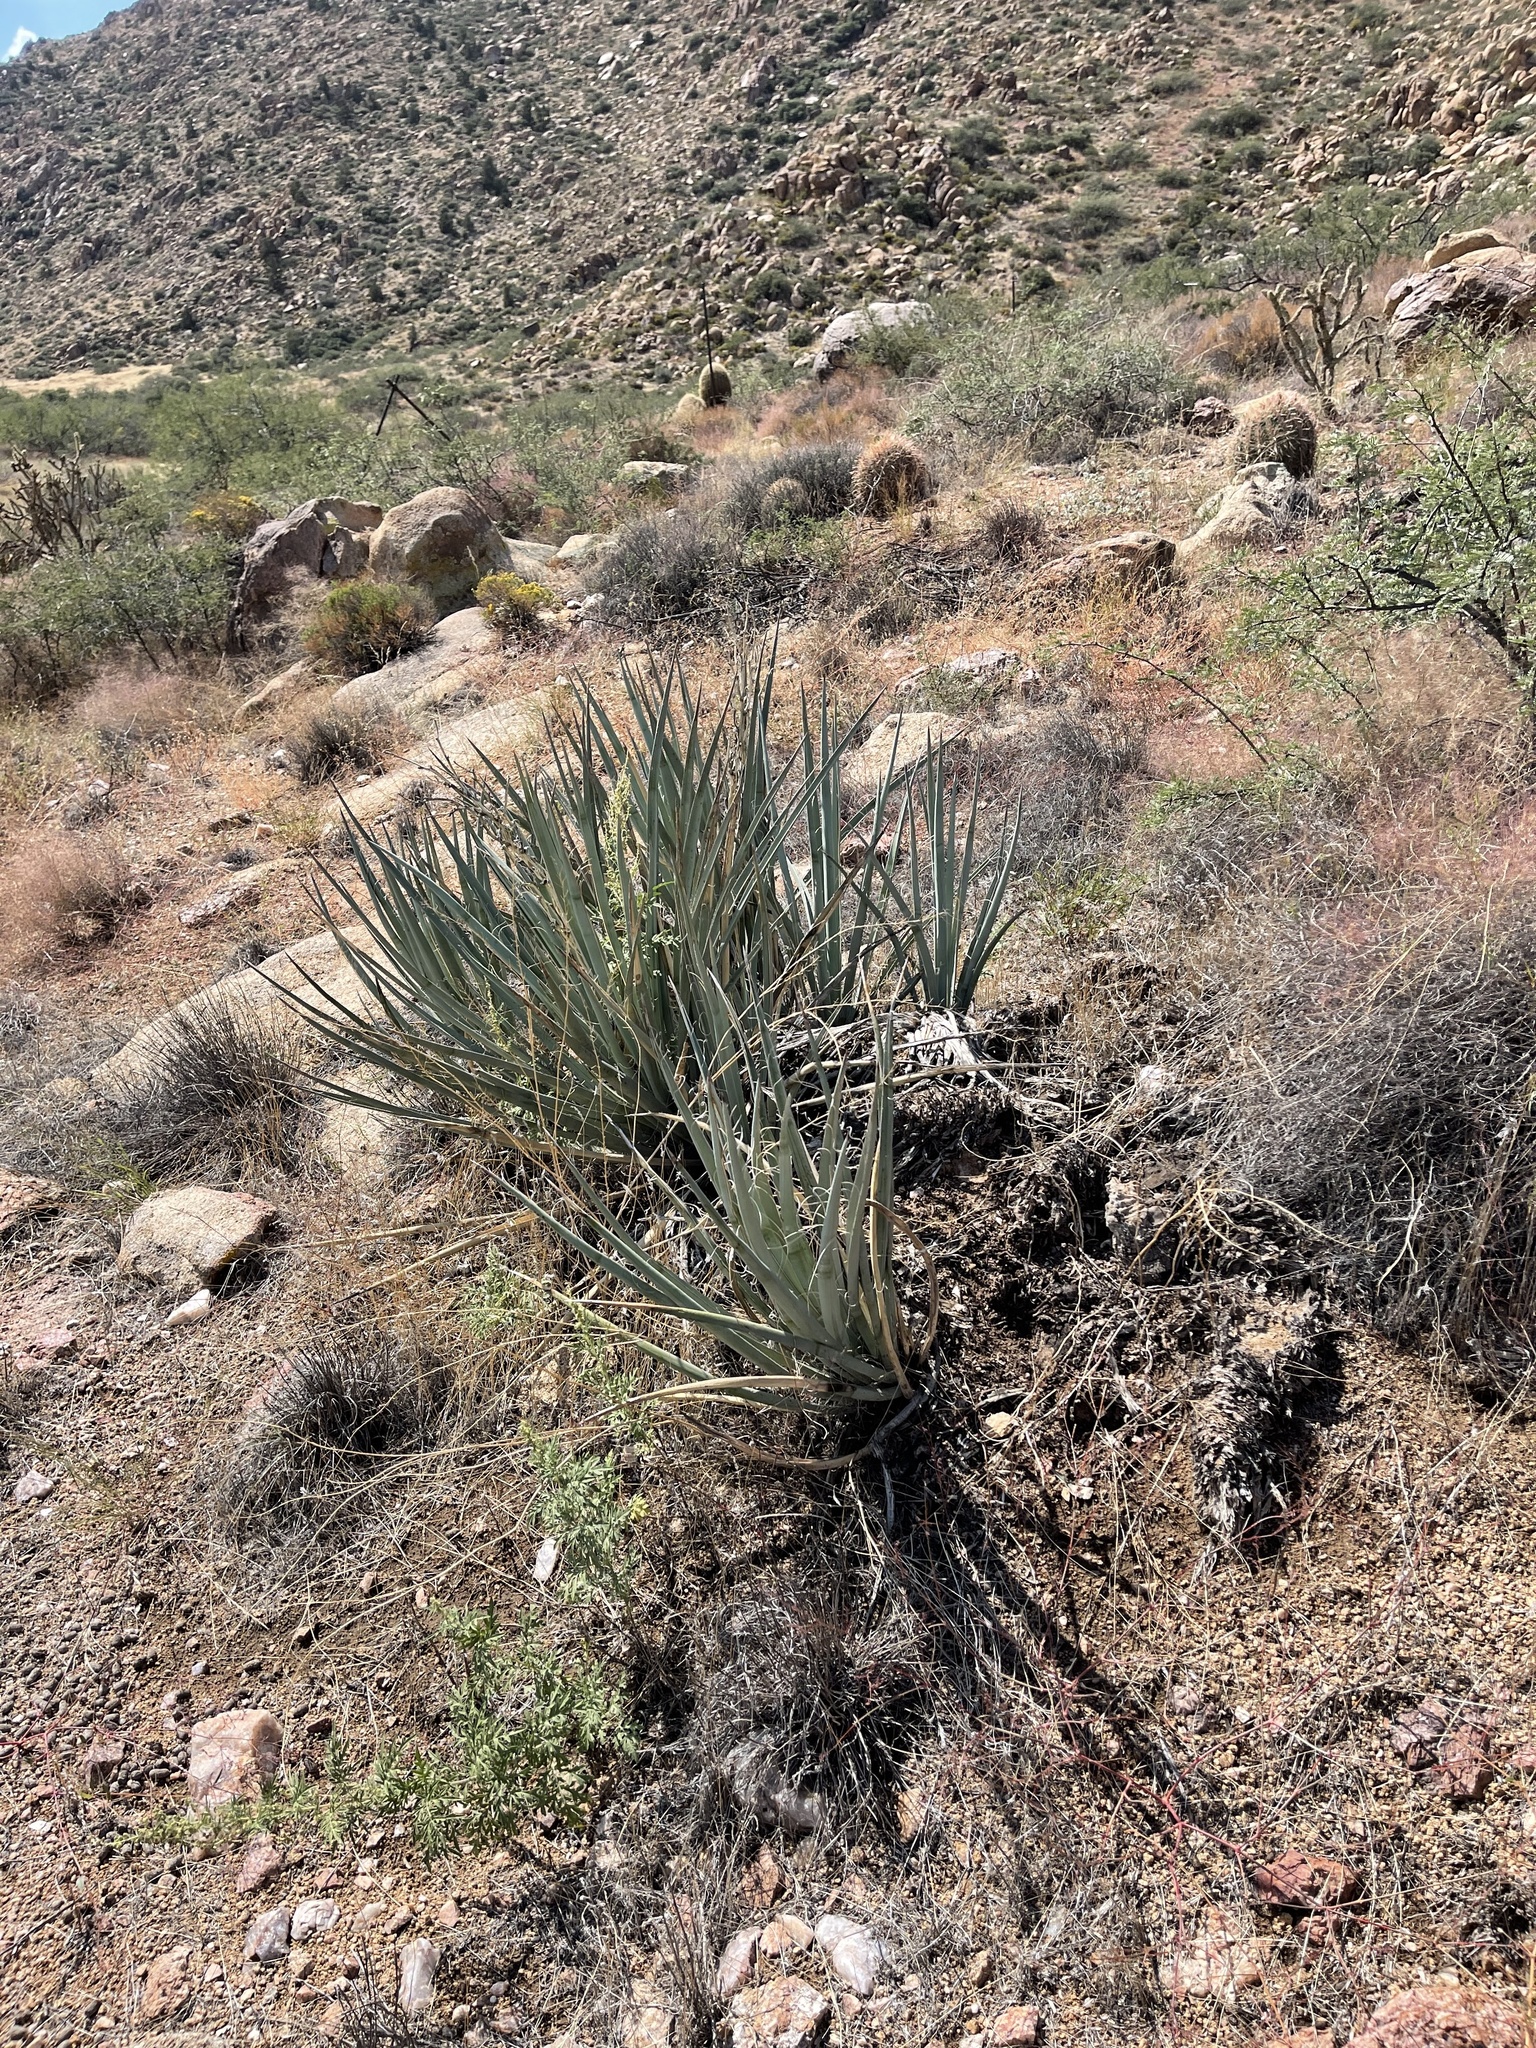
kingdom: Plantae
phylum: Tracheophyta
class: Liliopsida
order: Asparagales
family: Asparagaceae
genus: Yucca
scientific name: Yucca baccata
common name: Banana yucca
